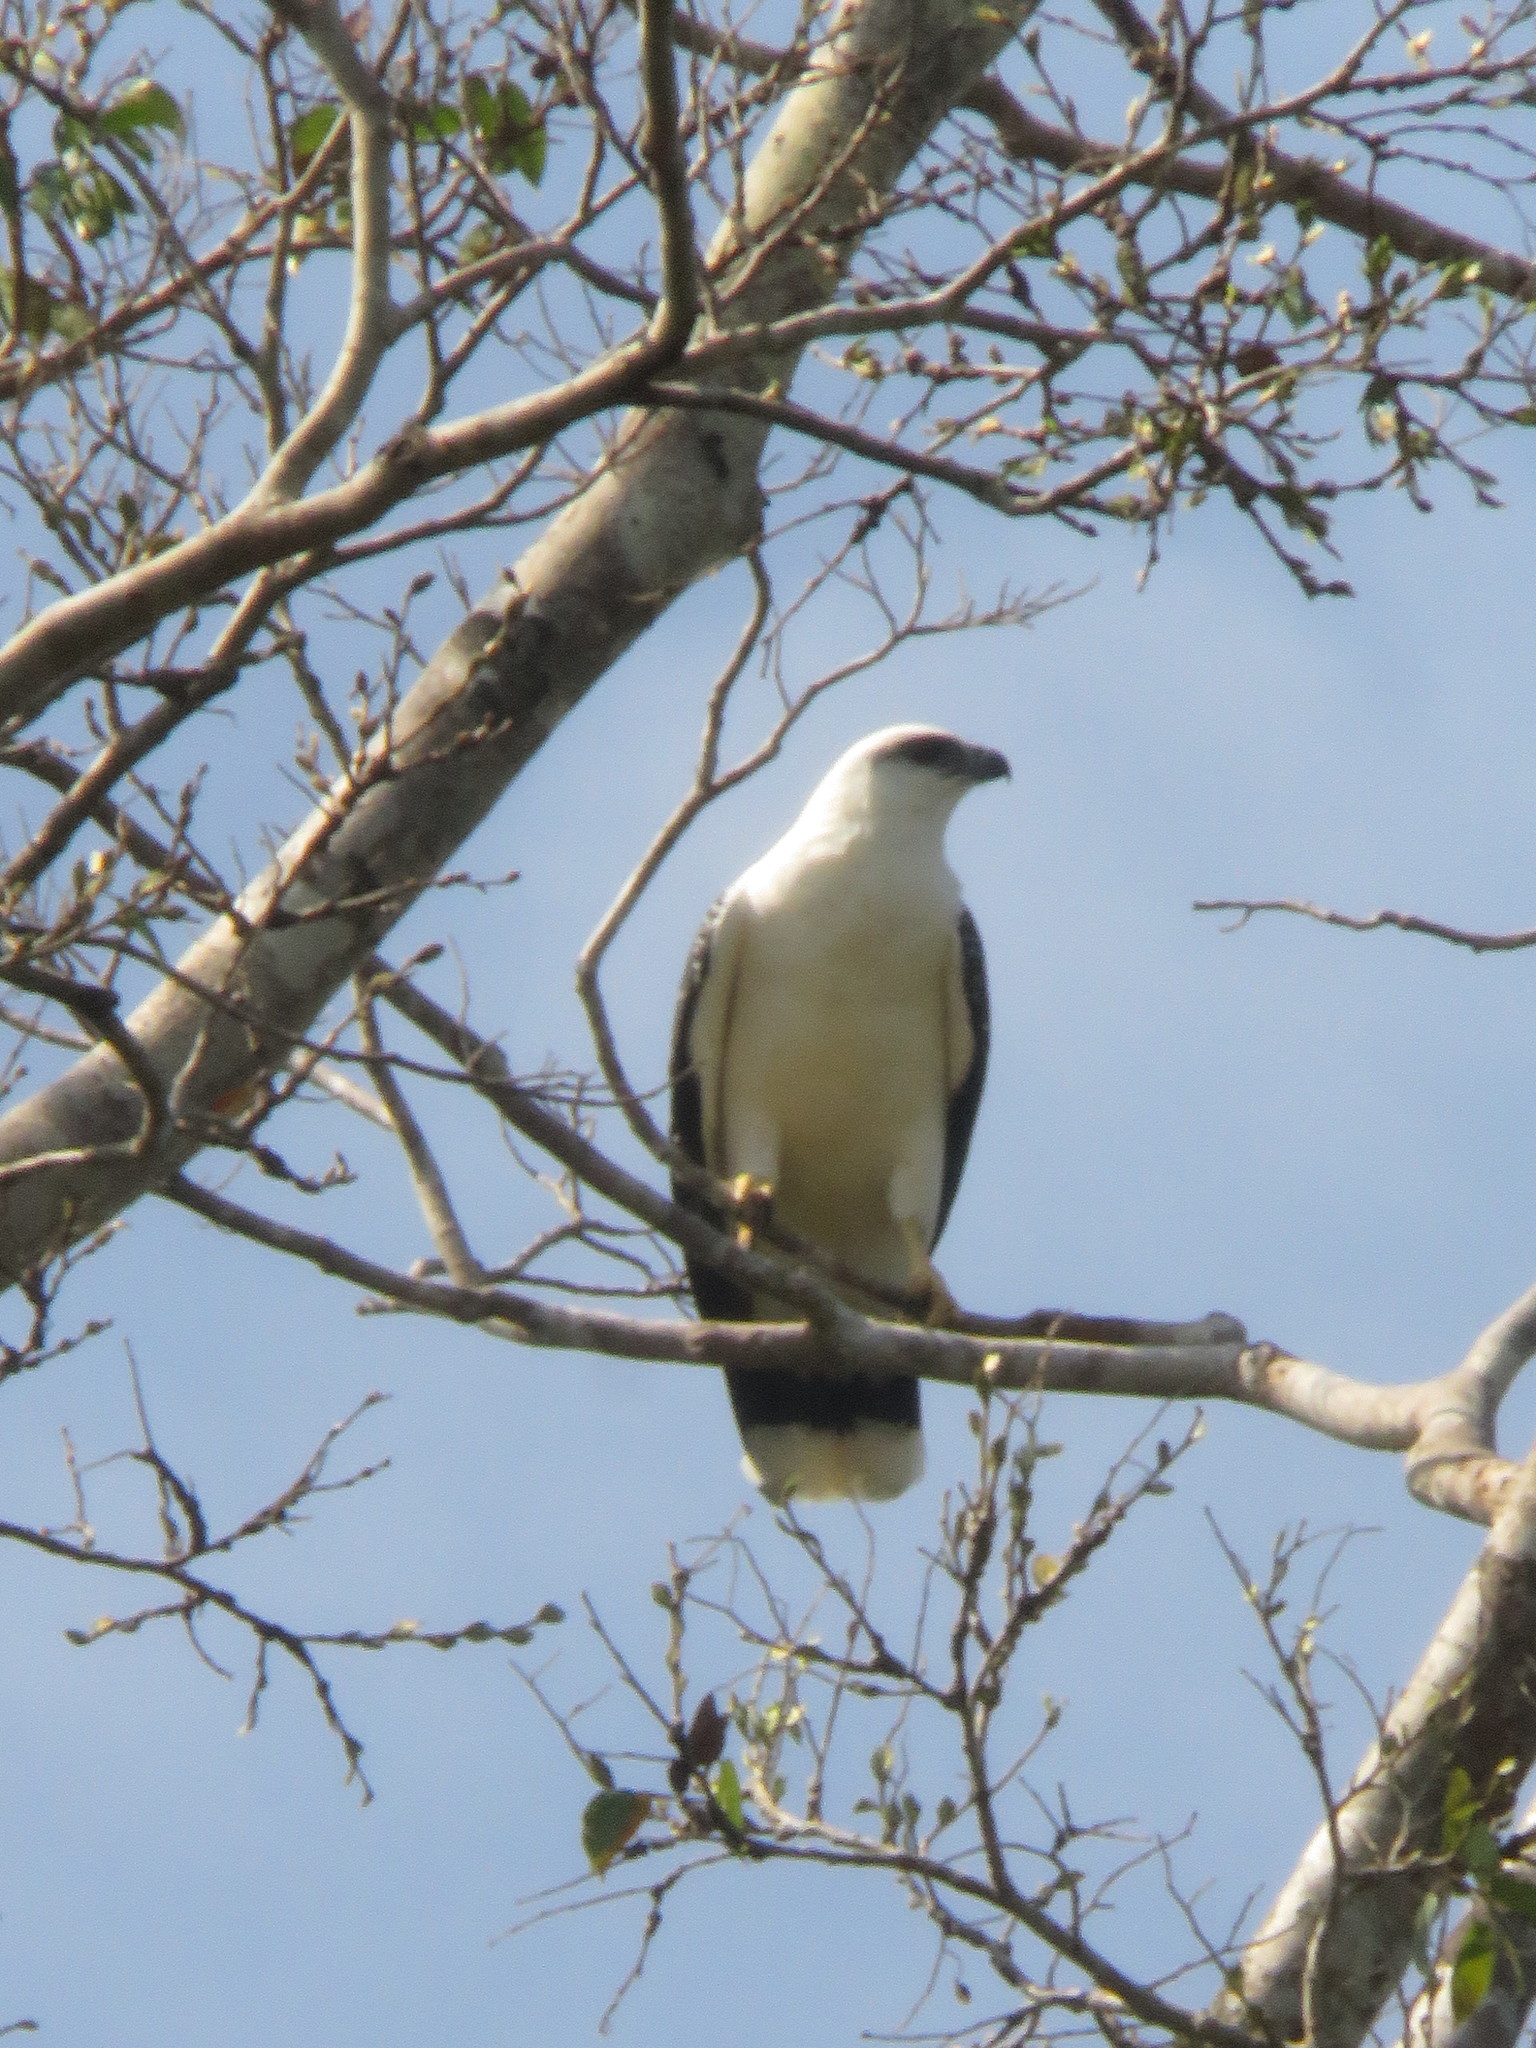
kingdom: Animalia
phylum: Chordata
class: Aves
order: Accipitriformes
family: Accipitridae
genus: Leucopternis
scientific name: Leucopternis albicollis
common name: White hawk
